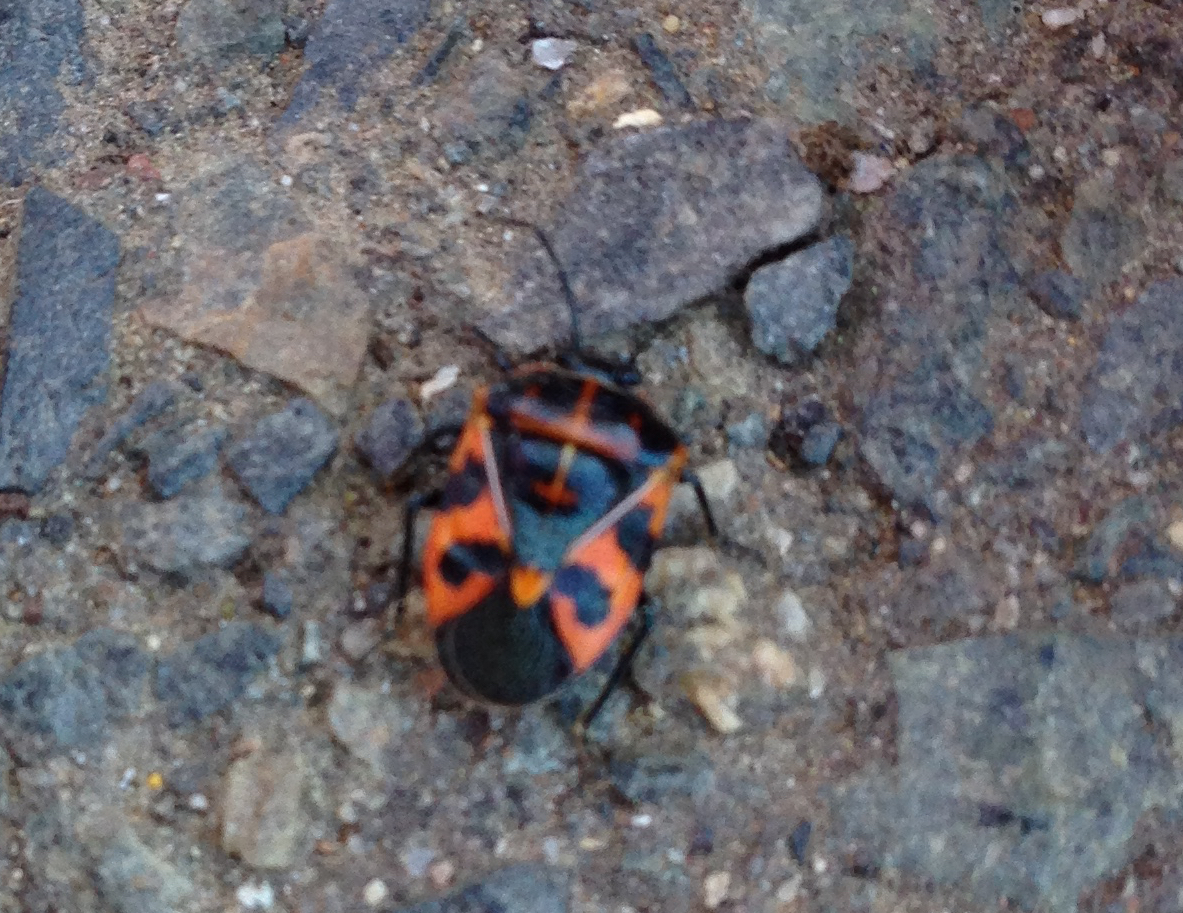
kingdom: Animalia
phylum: Arthropoda
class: Insecta
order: Hemiptera
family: Pentatomidae
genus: Murgantia
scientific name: Murgantia histrionica
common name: Harlequin bug
